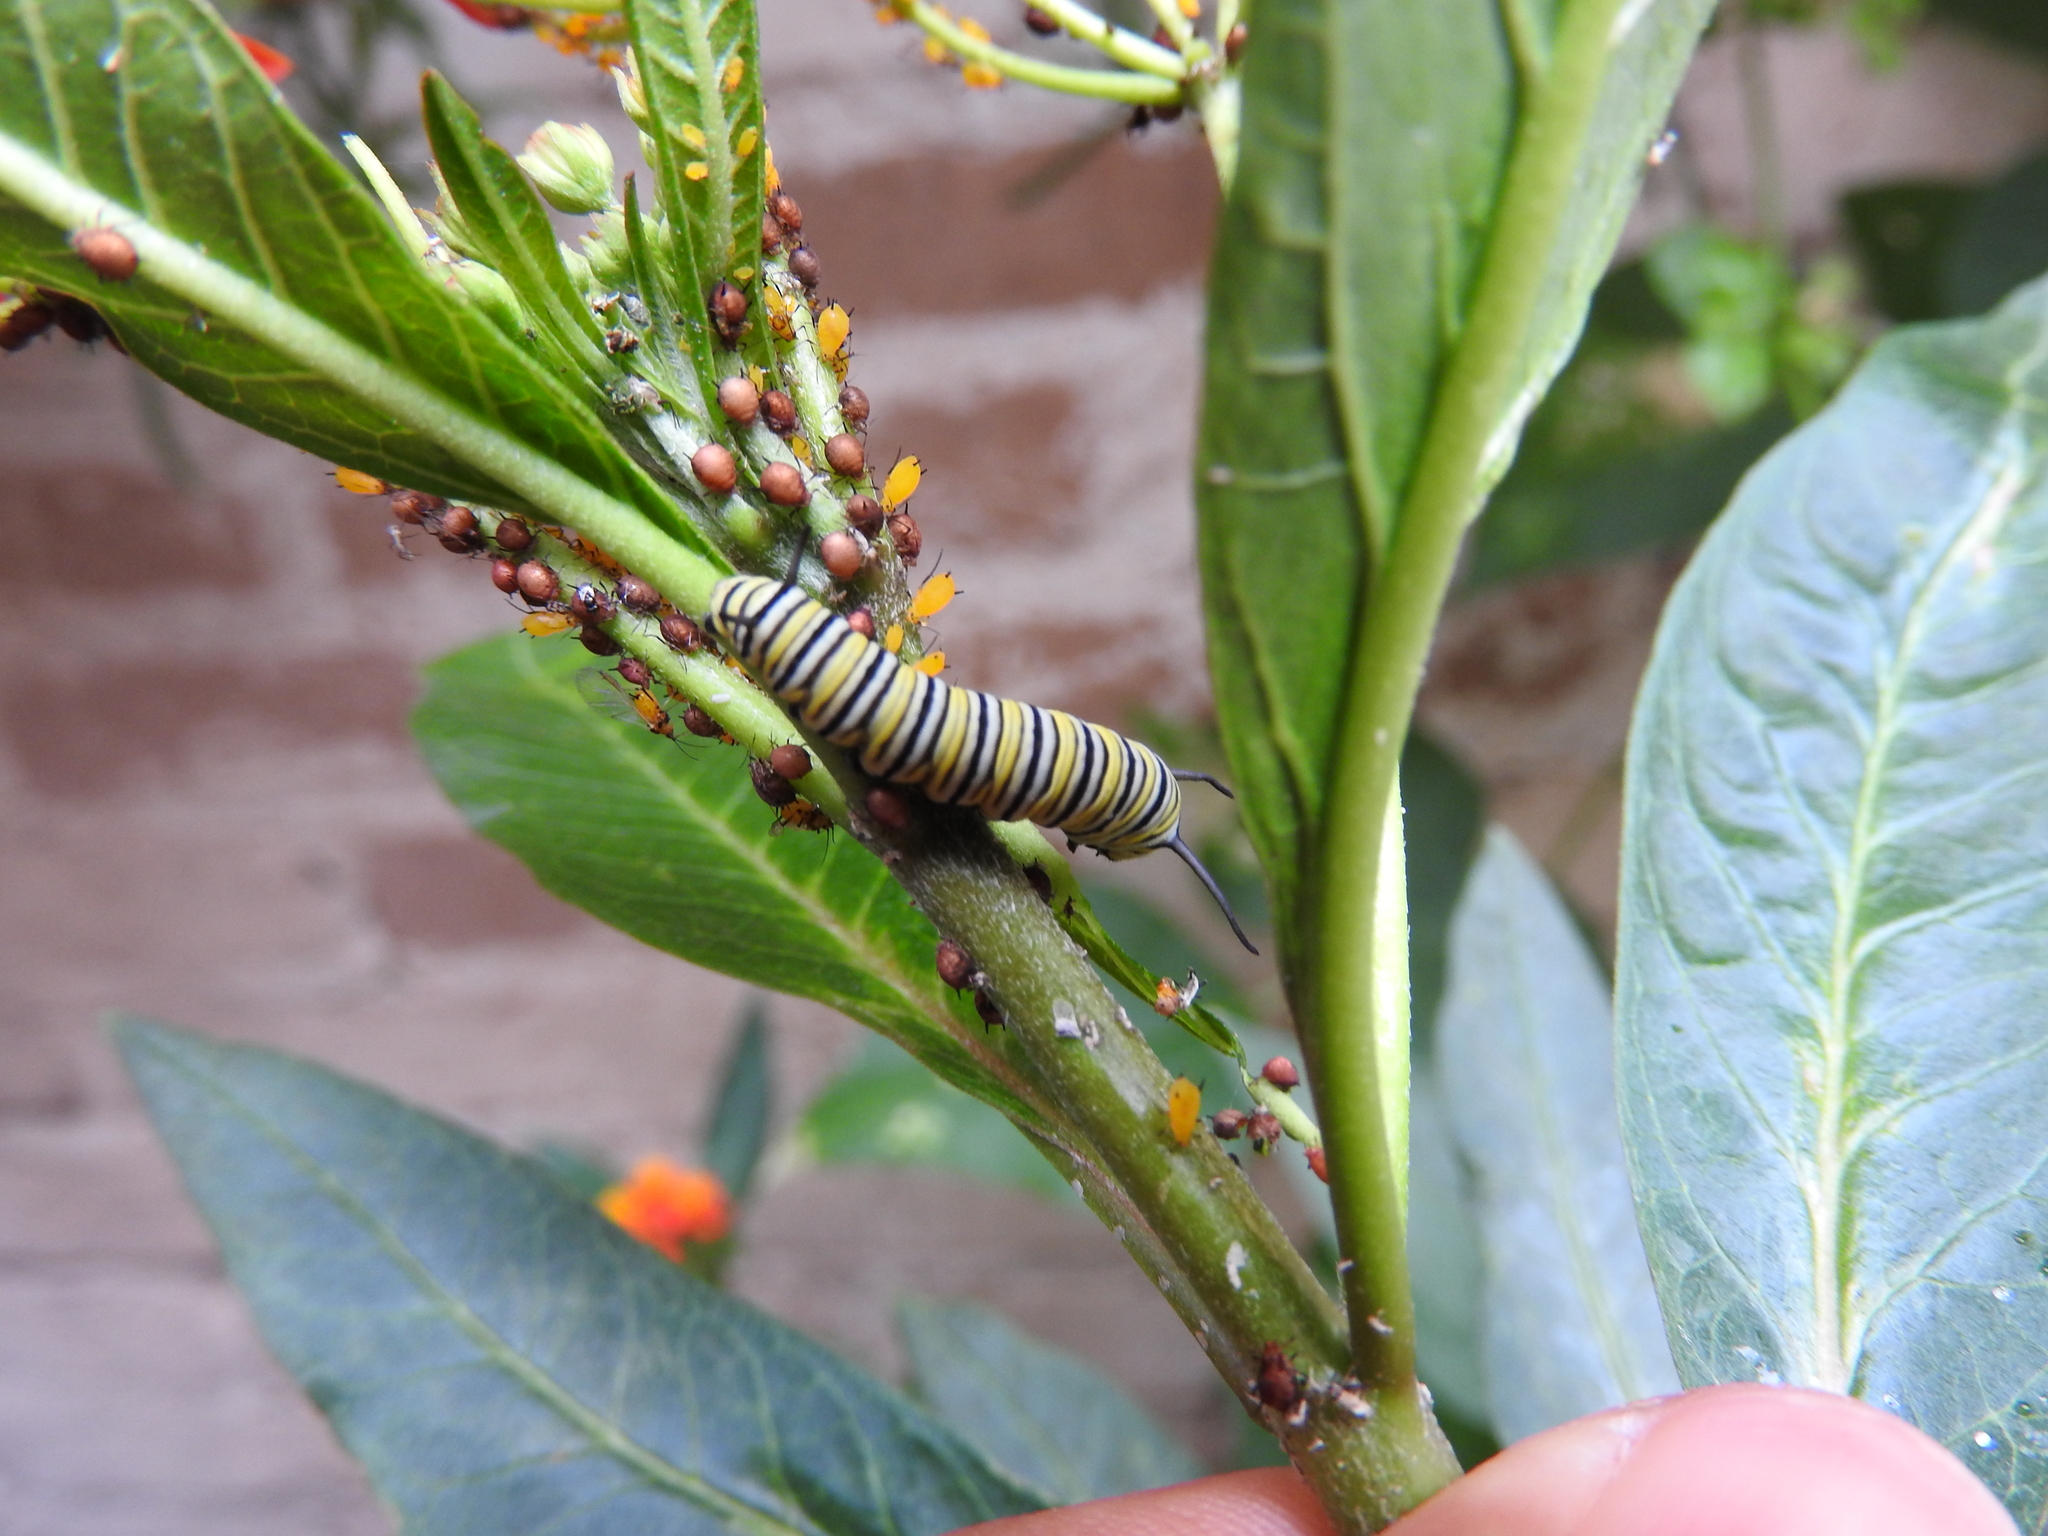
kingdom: Animalia
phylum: Arthropoda
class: Insecta
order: Lepidoptera
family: Nymphalidae
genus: Danaus
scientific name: Danaus plexippus
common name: Monarch
